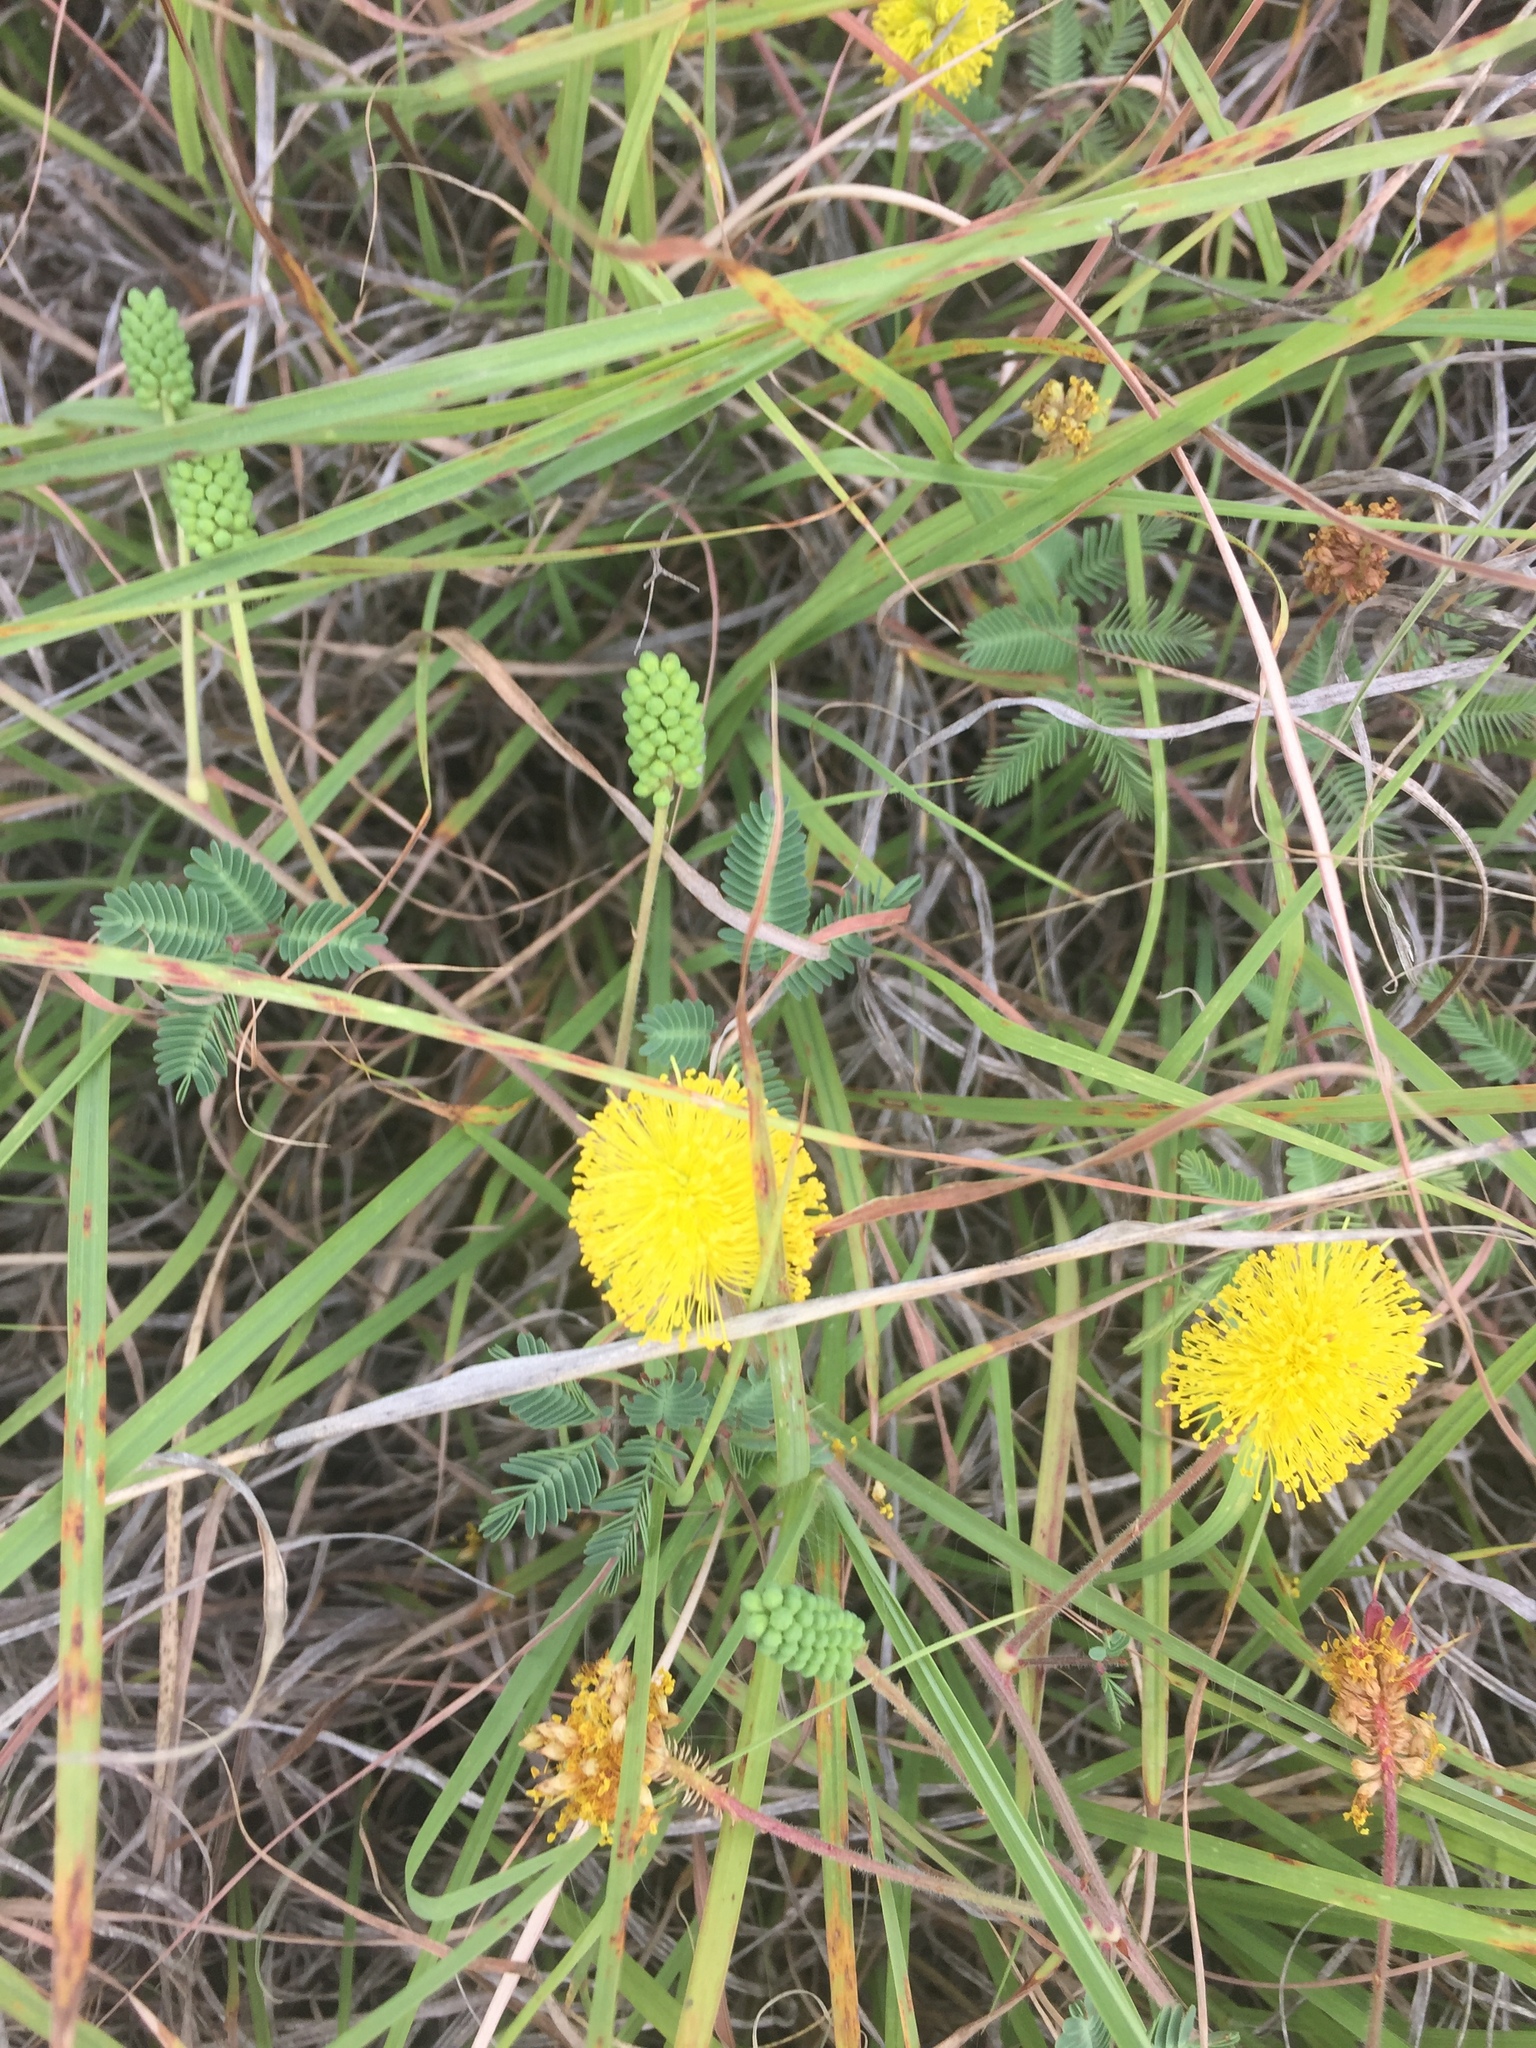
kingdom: Plantae
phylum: Tracheophyta
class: Magnoliopsida
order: Fabales
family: Fabaceae
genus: Neptunia
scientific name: Neptunia lutea
